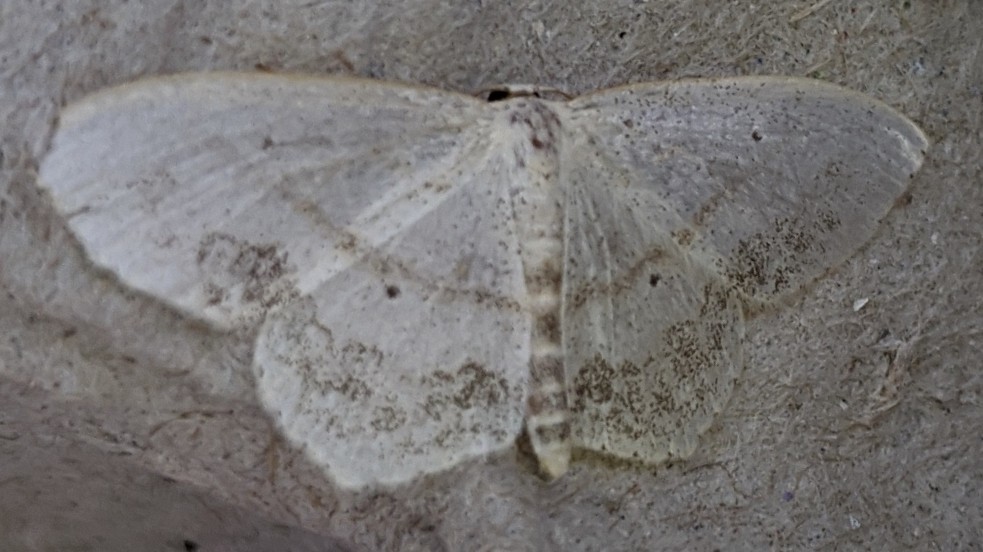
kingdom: Animalia
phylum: Arthropoda
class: Insecta
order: Lepidoptera
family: Geometridae
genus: Scopula
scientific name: Scopula limboundata
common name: Large lace border
